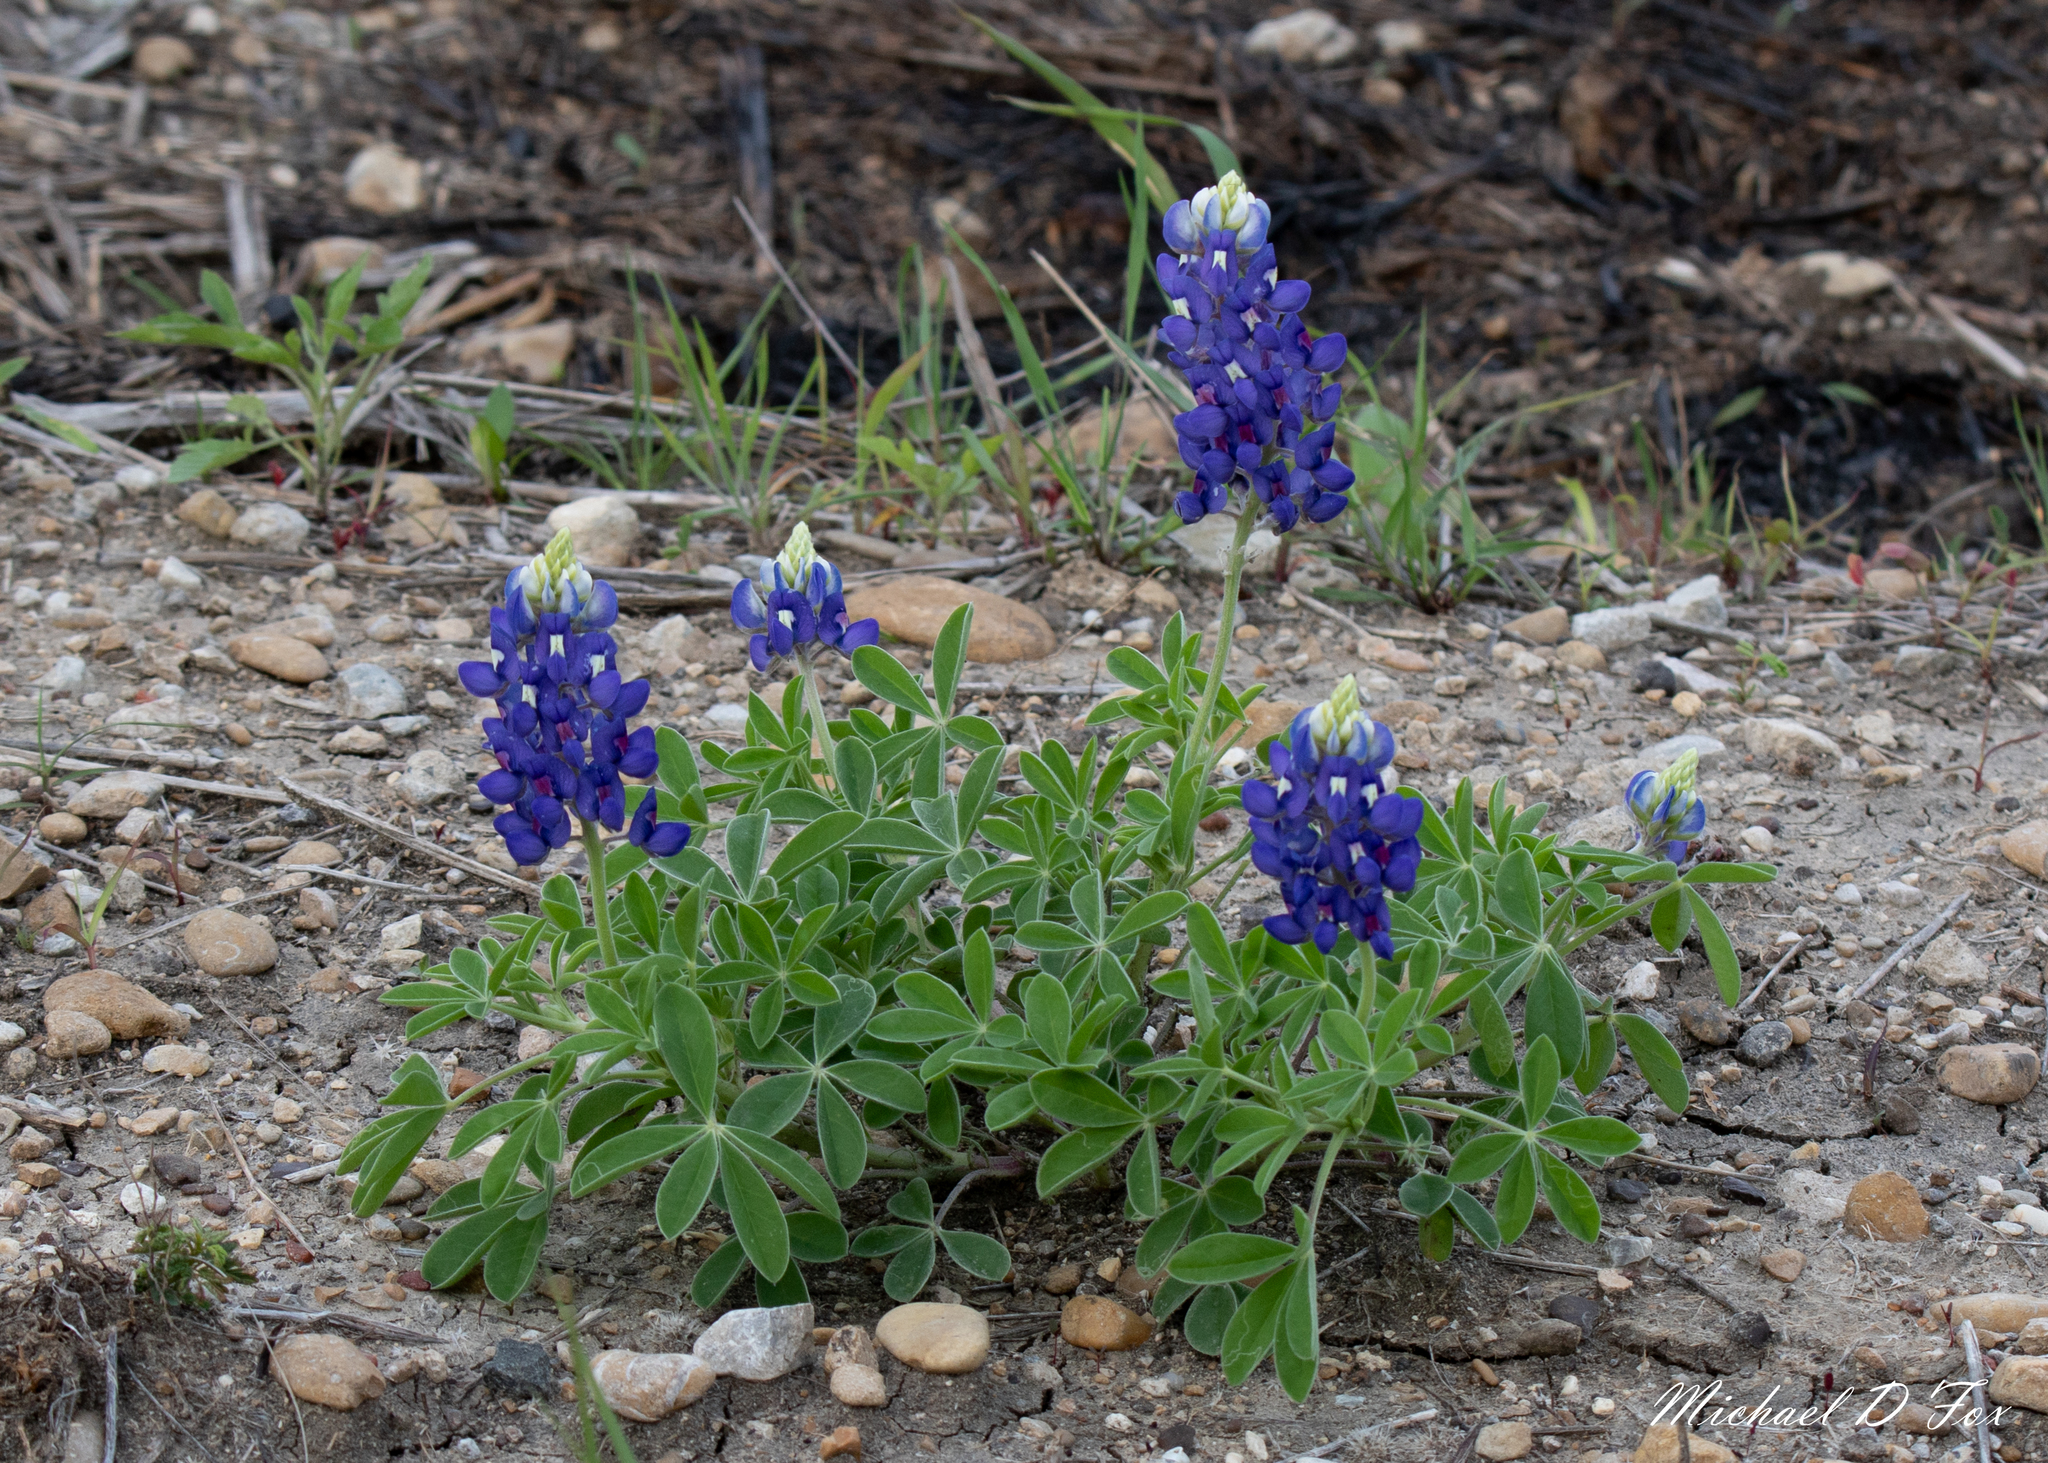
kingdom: Plantae
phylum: Tracheophyta
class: Magnoliopsida
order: Fabales
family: Fabaceae
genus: Lupinus
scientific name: Lupinus texensis
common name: Texas bluebonnet
